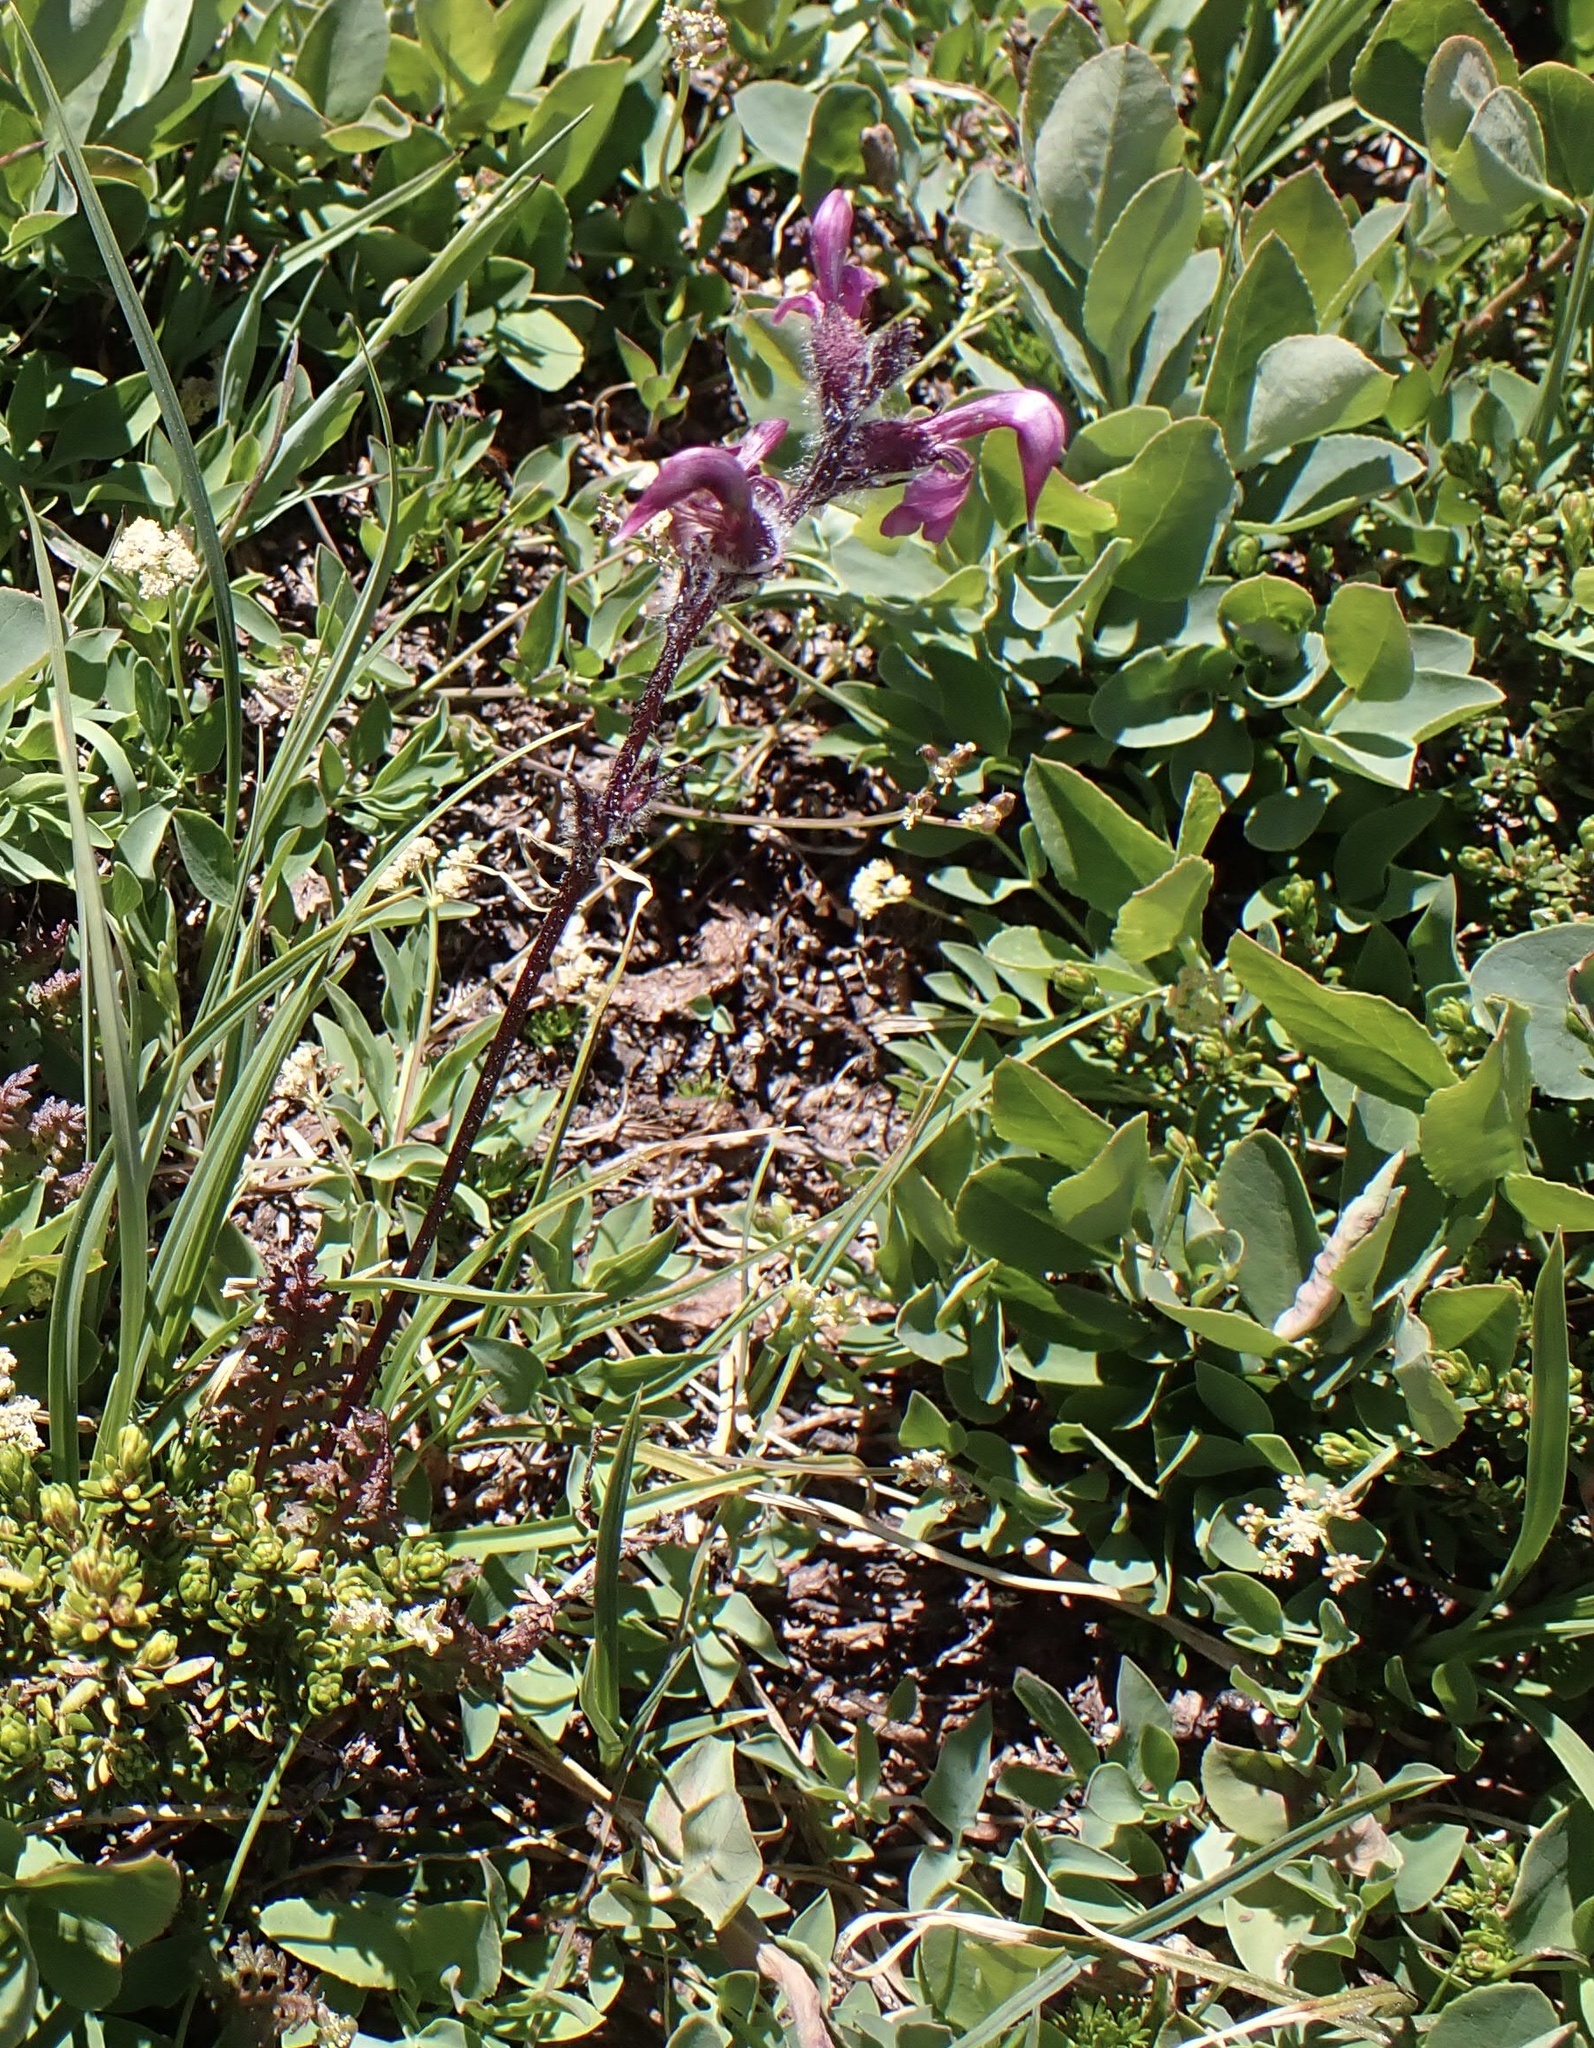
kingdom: Plantae
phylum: Tracheophyta
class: Magnoliopsida
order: Lamiales
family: Orobanchaceae
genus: Pedicularis
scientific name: Pedicularis ornithorhynchos
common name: Bird's-beak lousewort
